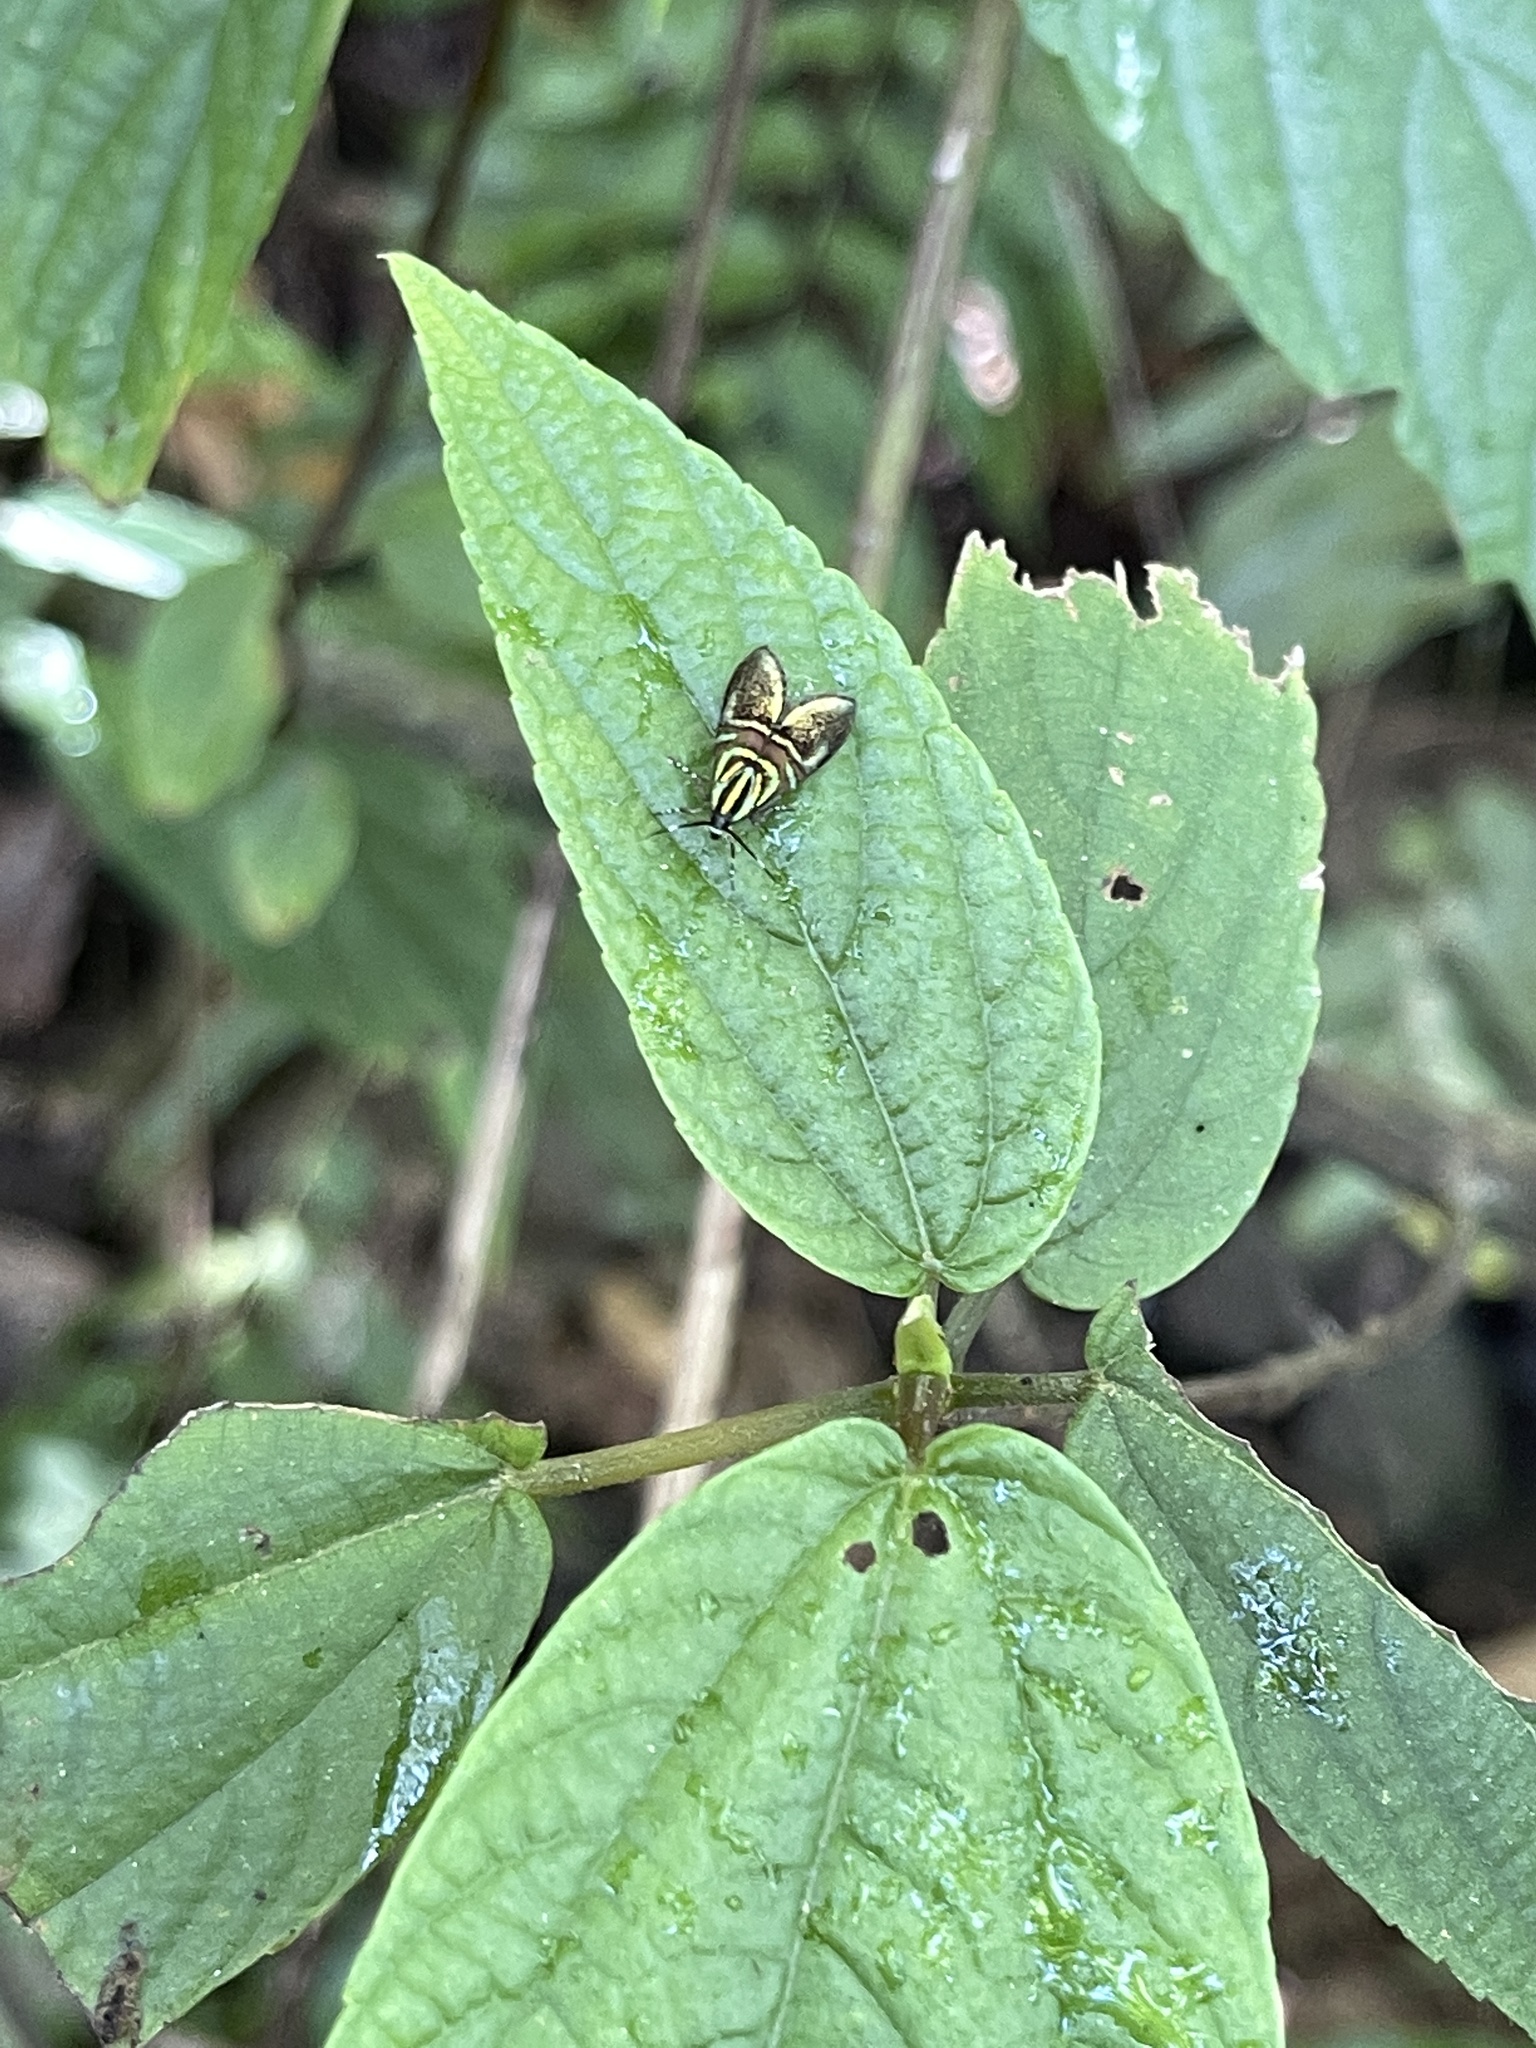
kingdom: Animalia
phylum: Arthropoda
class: Insecta
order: Lepidoptera
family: Choreutidae
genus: Saptha
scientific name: Saptha divitiosa
